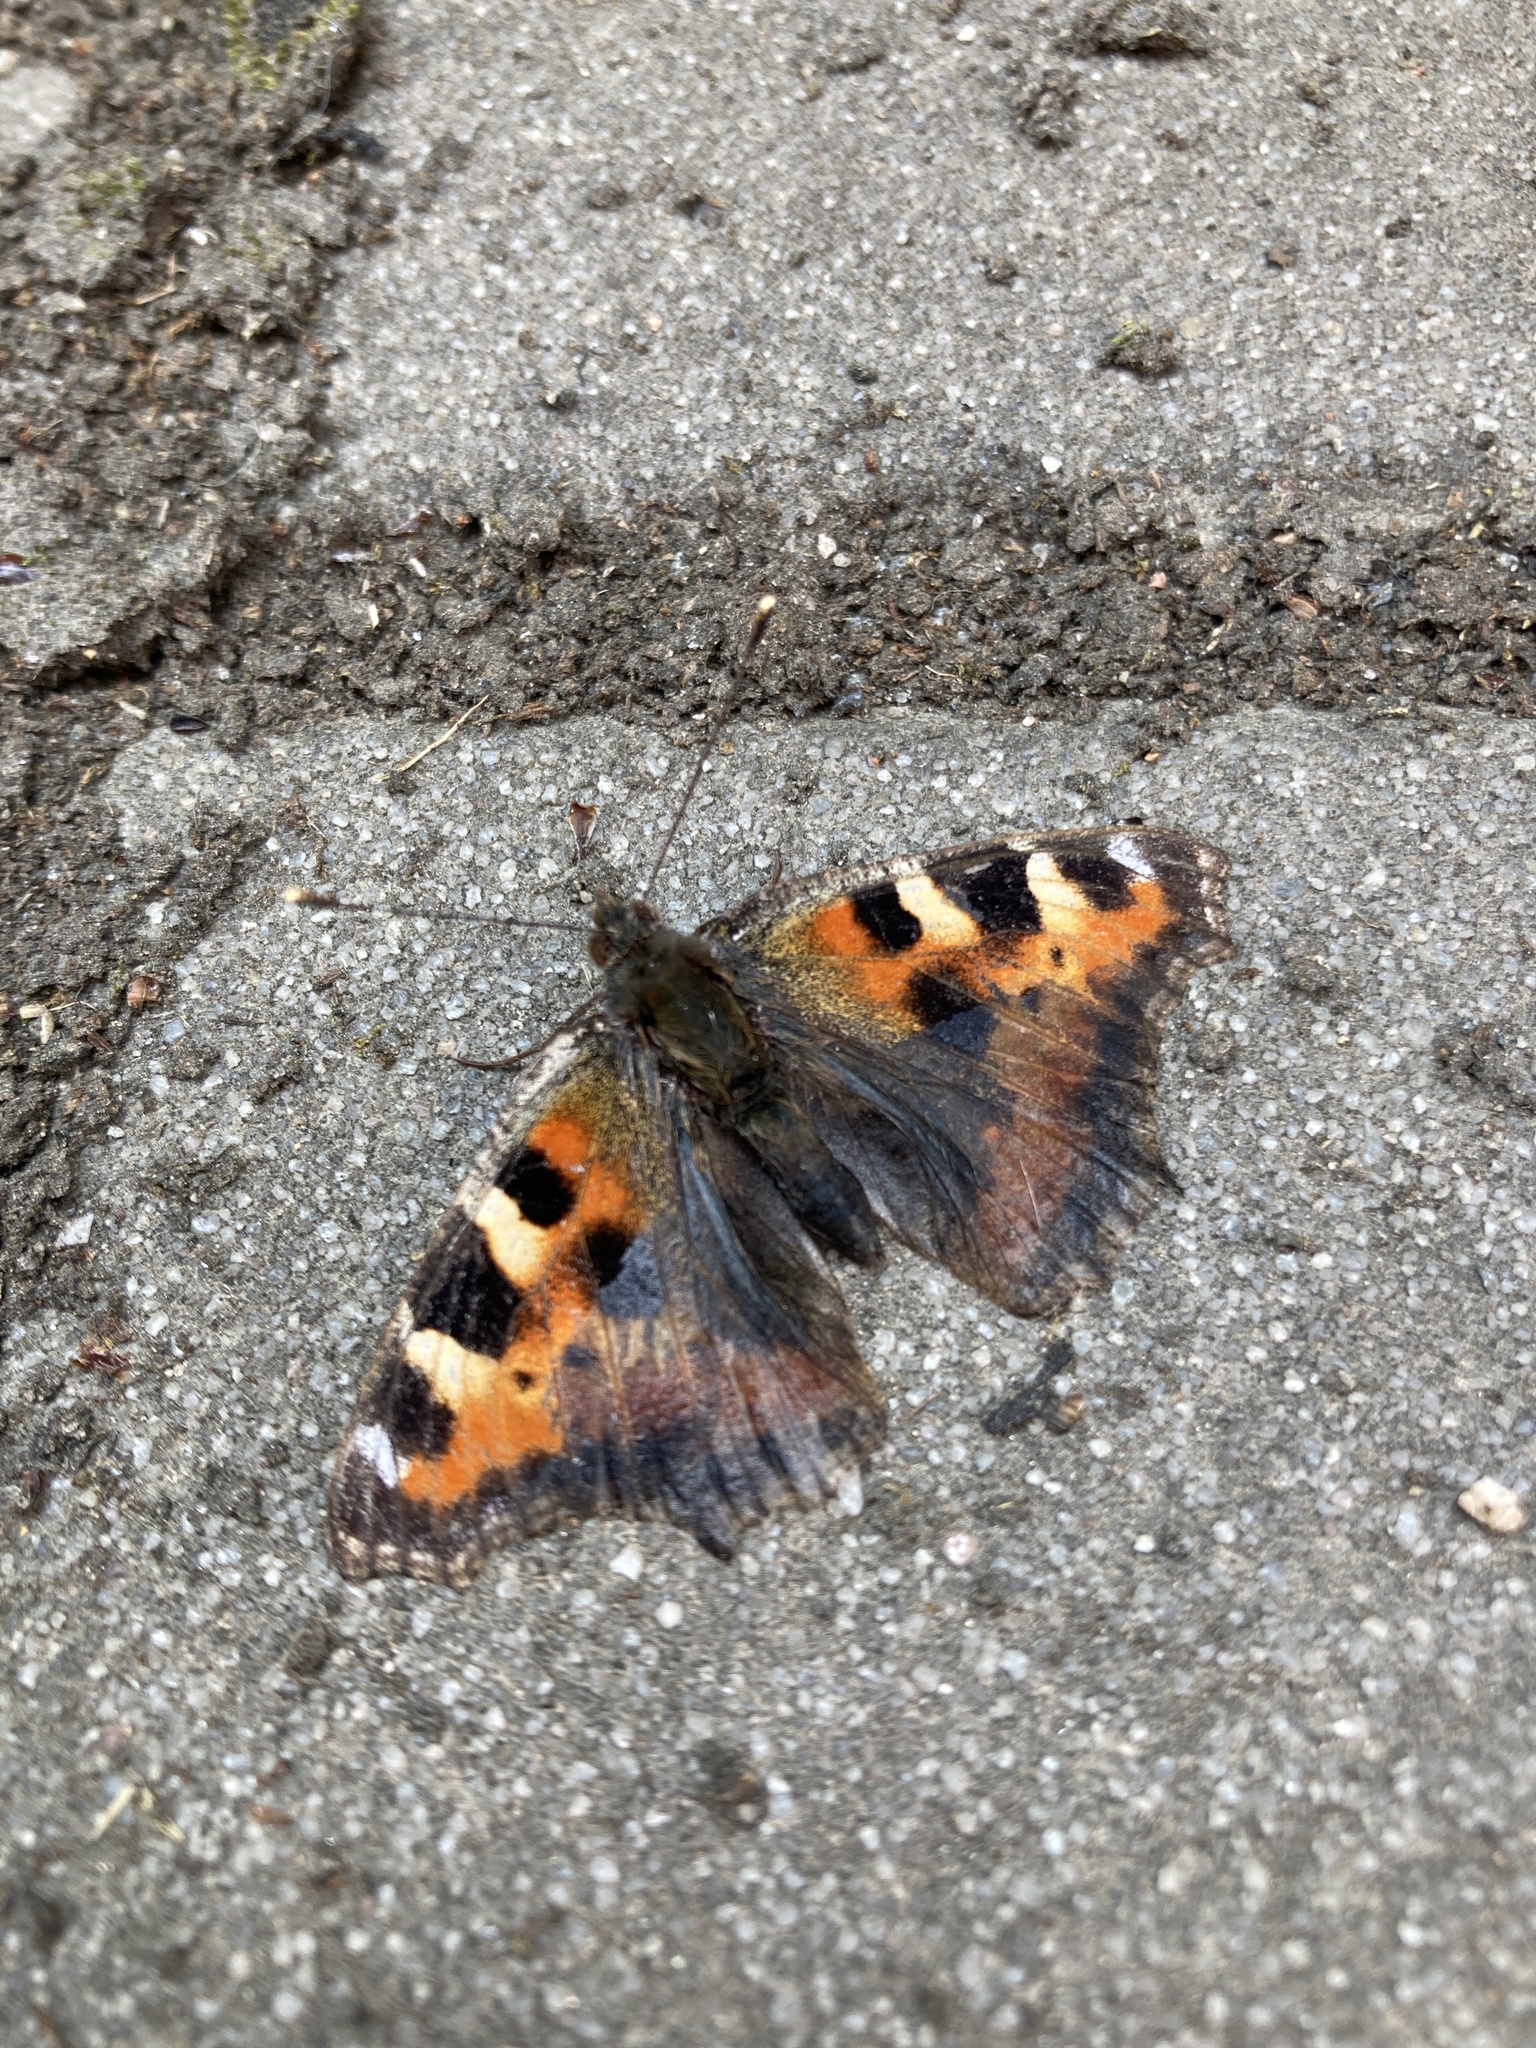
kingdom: Animalia
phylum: Arthropoda
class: Insecta
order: Lepidoptera
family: Nymphalidae
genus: Aglais
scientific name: Aglais urticae
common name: Small tortoiseshell
